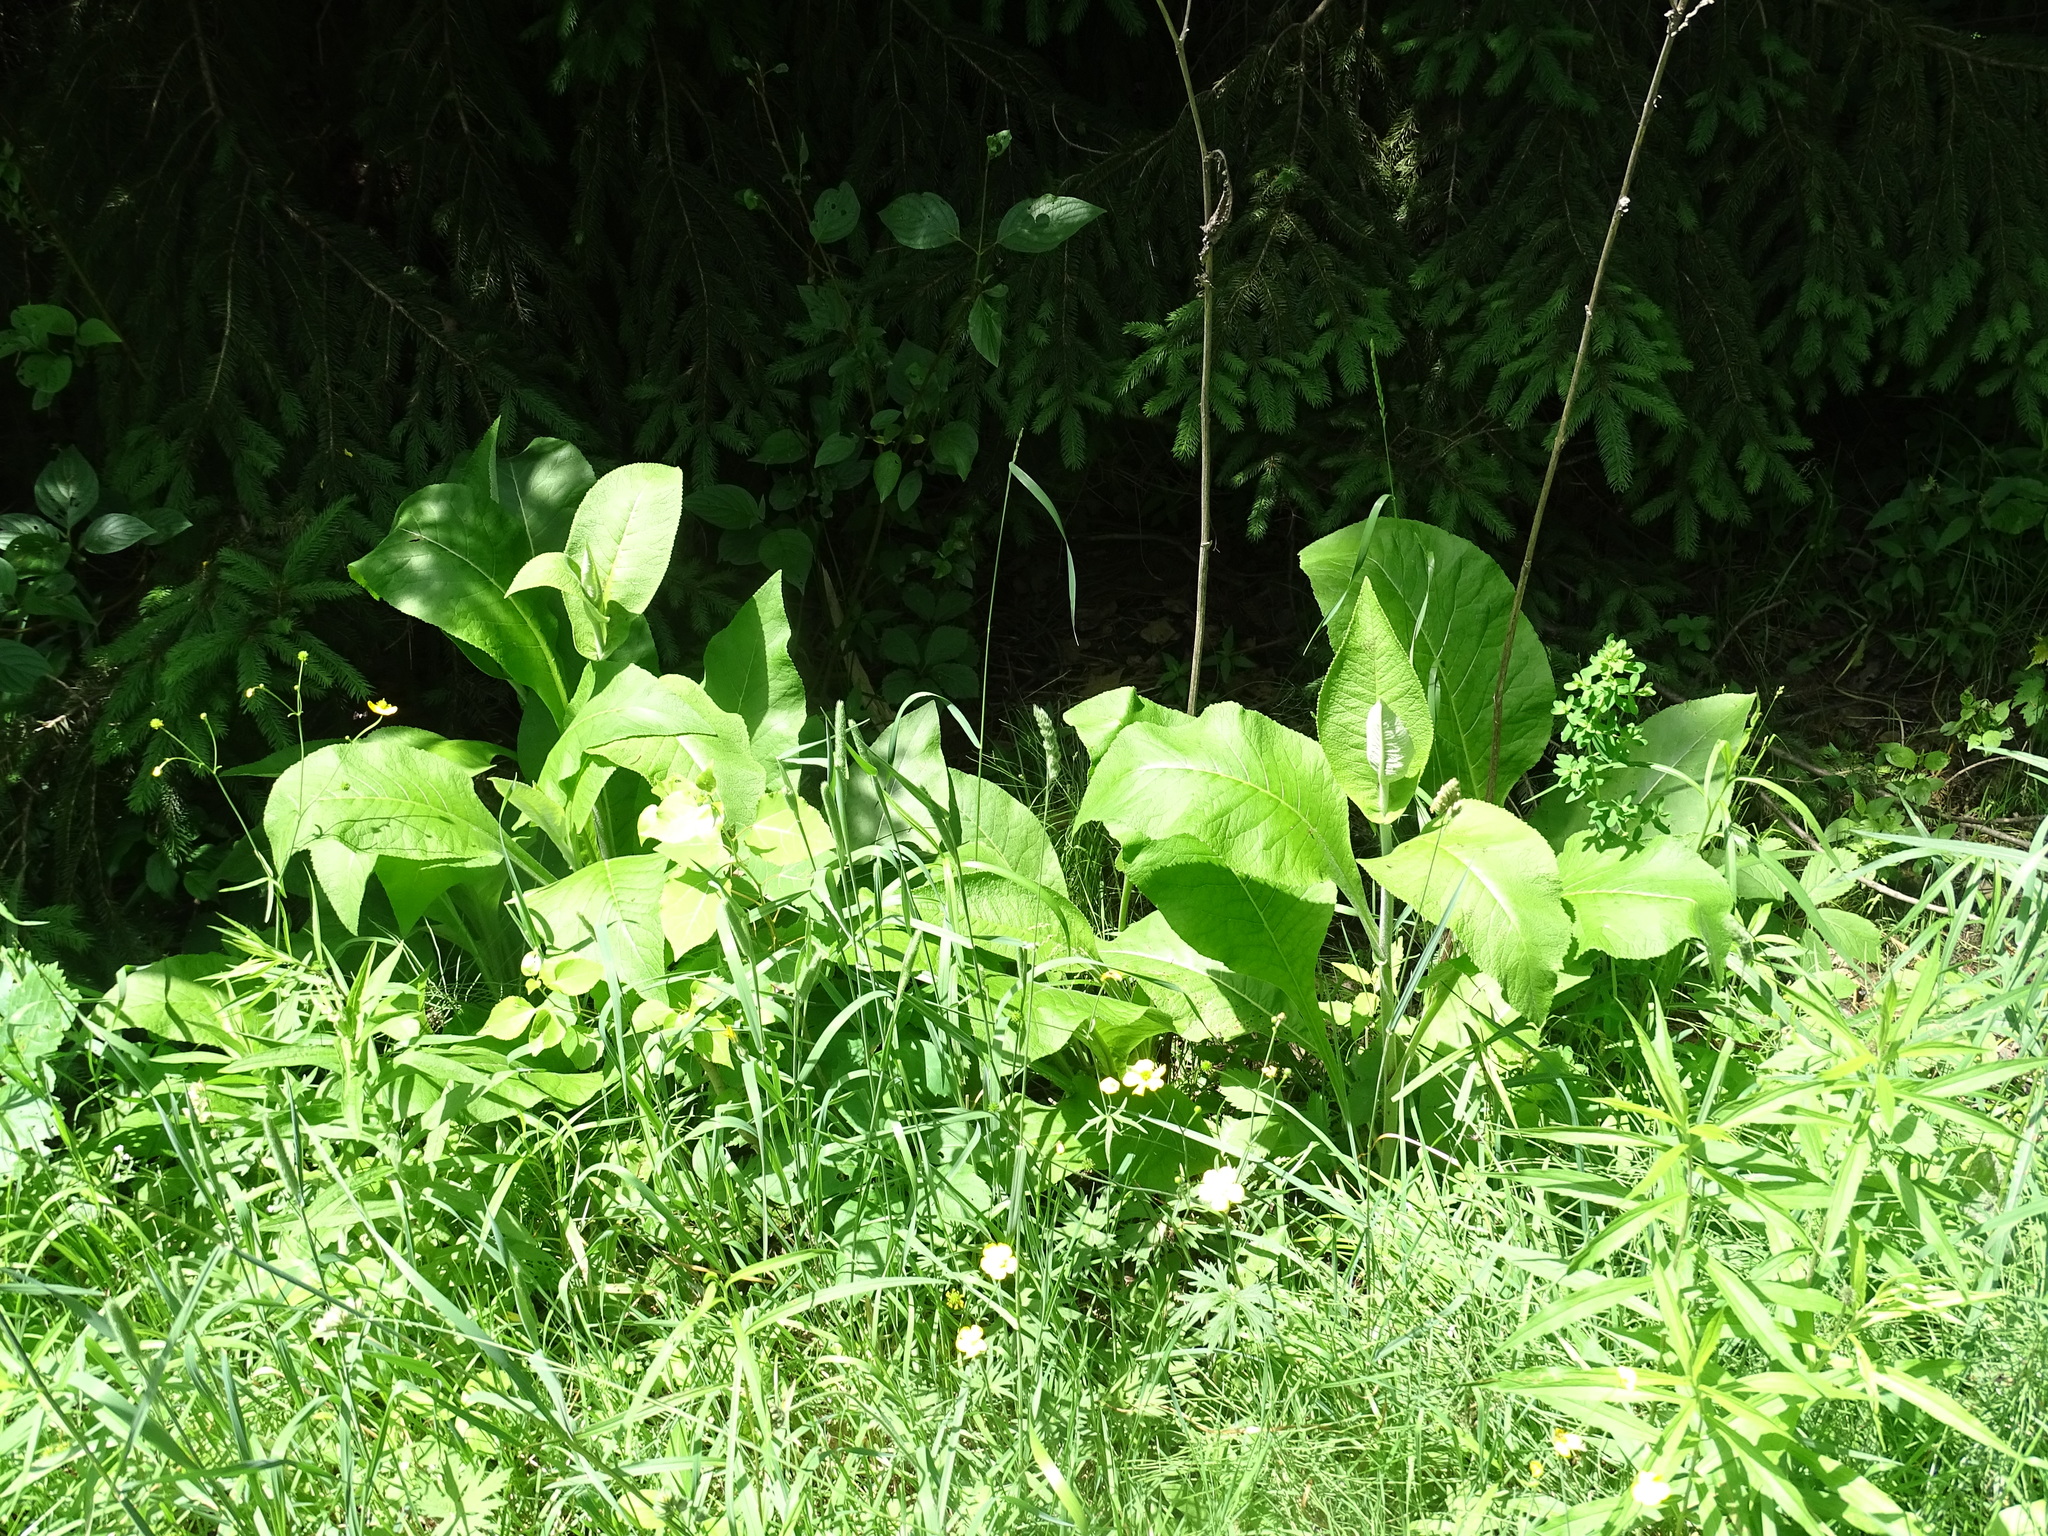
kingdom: Plantae
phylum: Tracheophyta
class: Magnoliopsida
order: Asterales
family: Asteraceae
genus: Inula
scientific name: Inula helenium
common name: Elecampane
